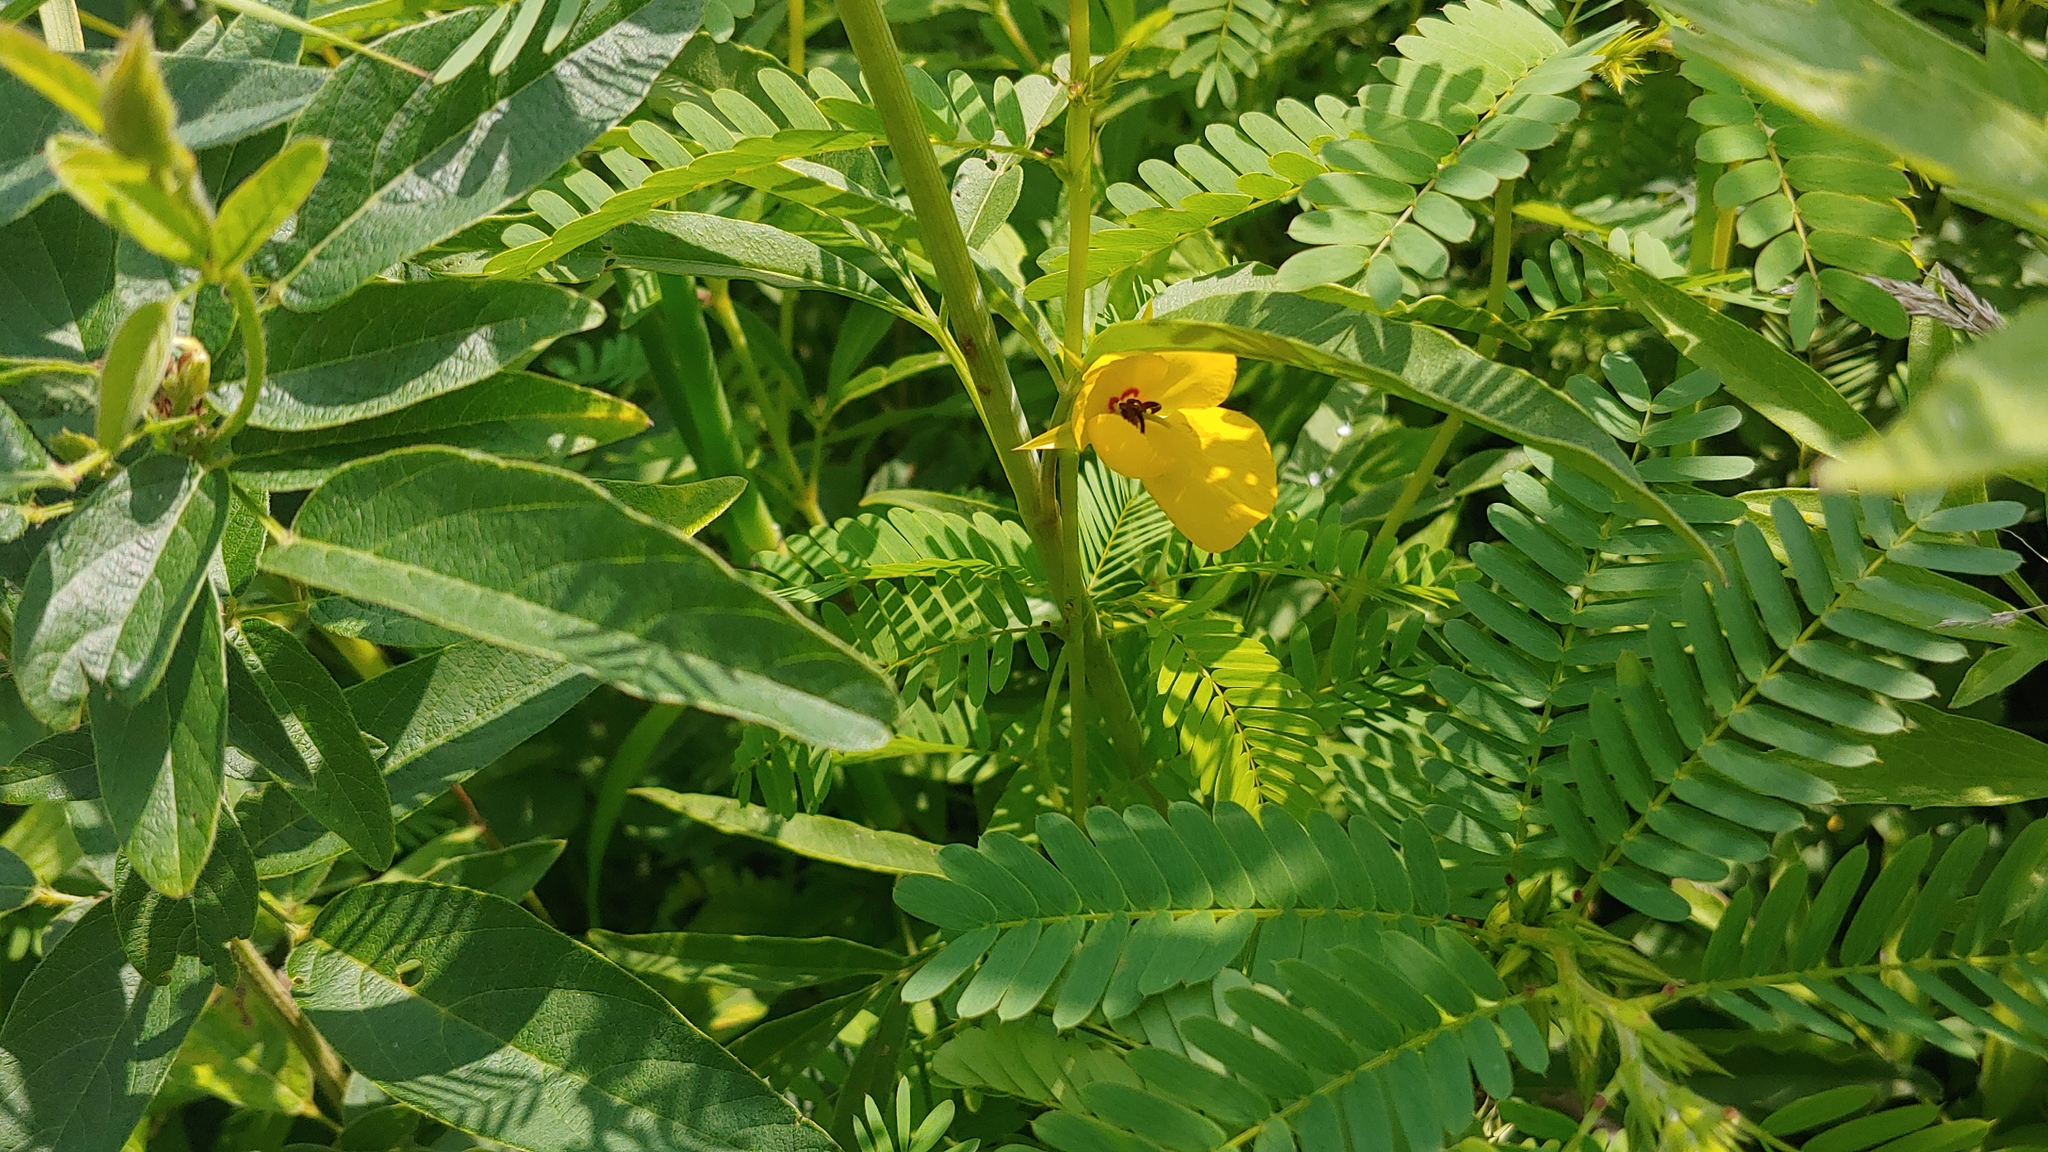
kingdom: Plantae
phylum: Tracheophyta
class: Magnoliopsida
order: Fabales
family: Fabaceae
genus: Chamaecrista
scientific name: Chamaecrista fasciculata
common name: Golden cassia
